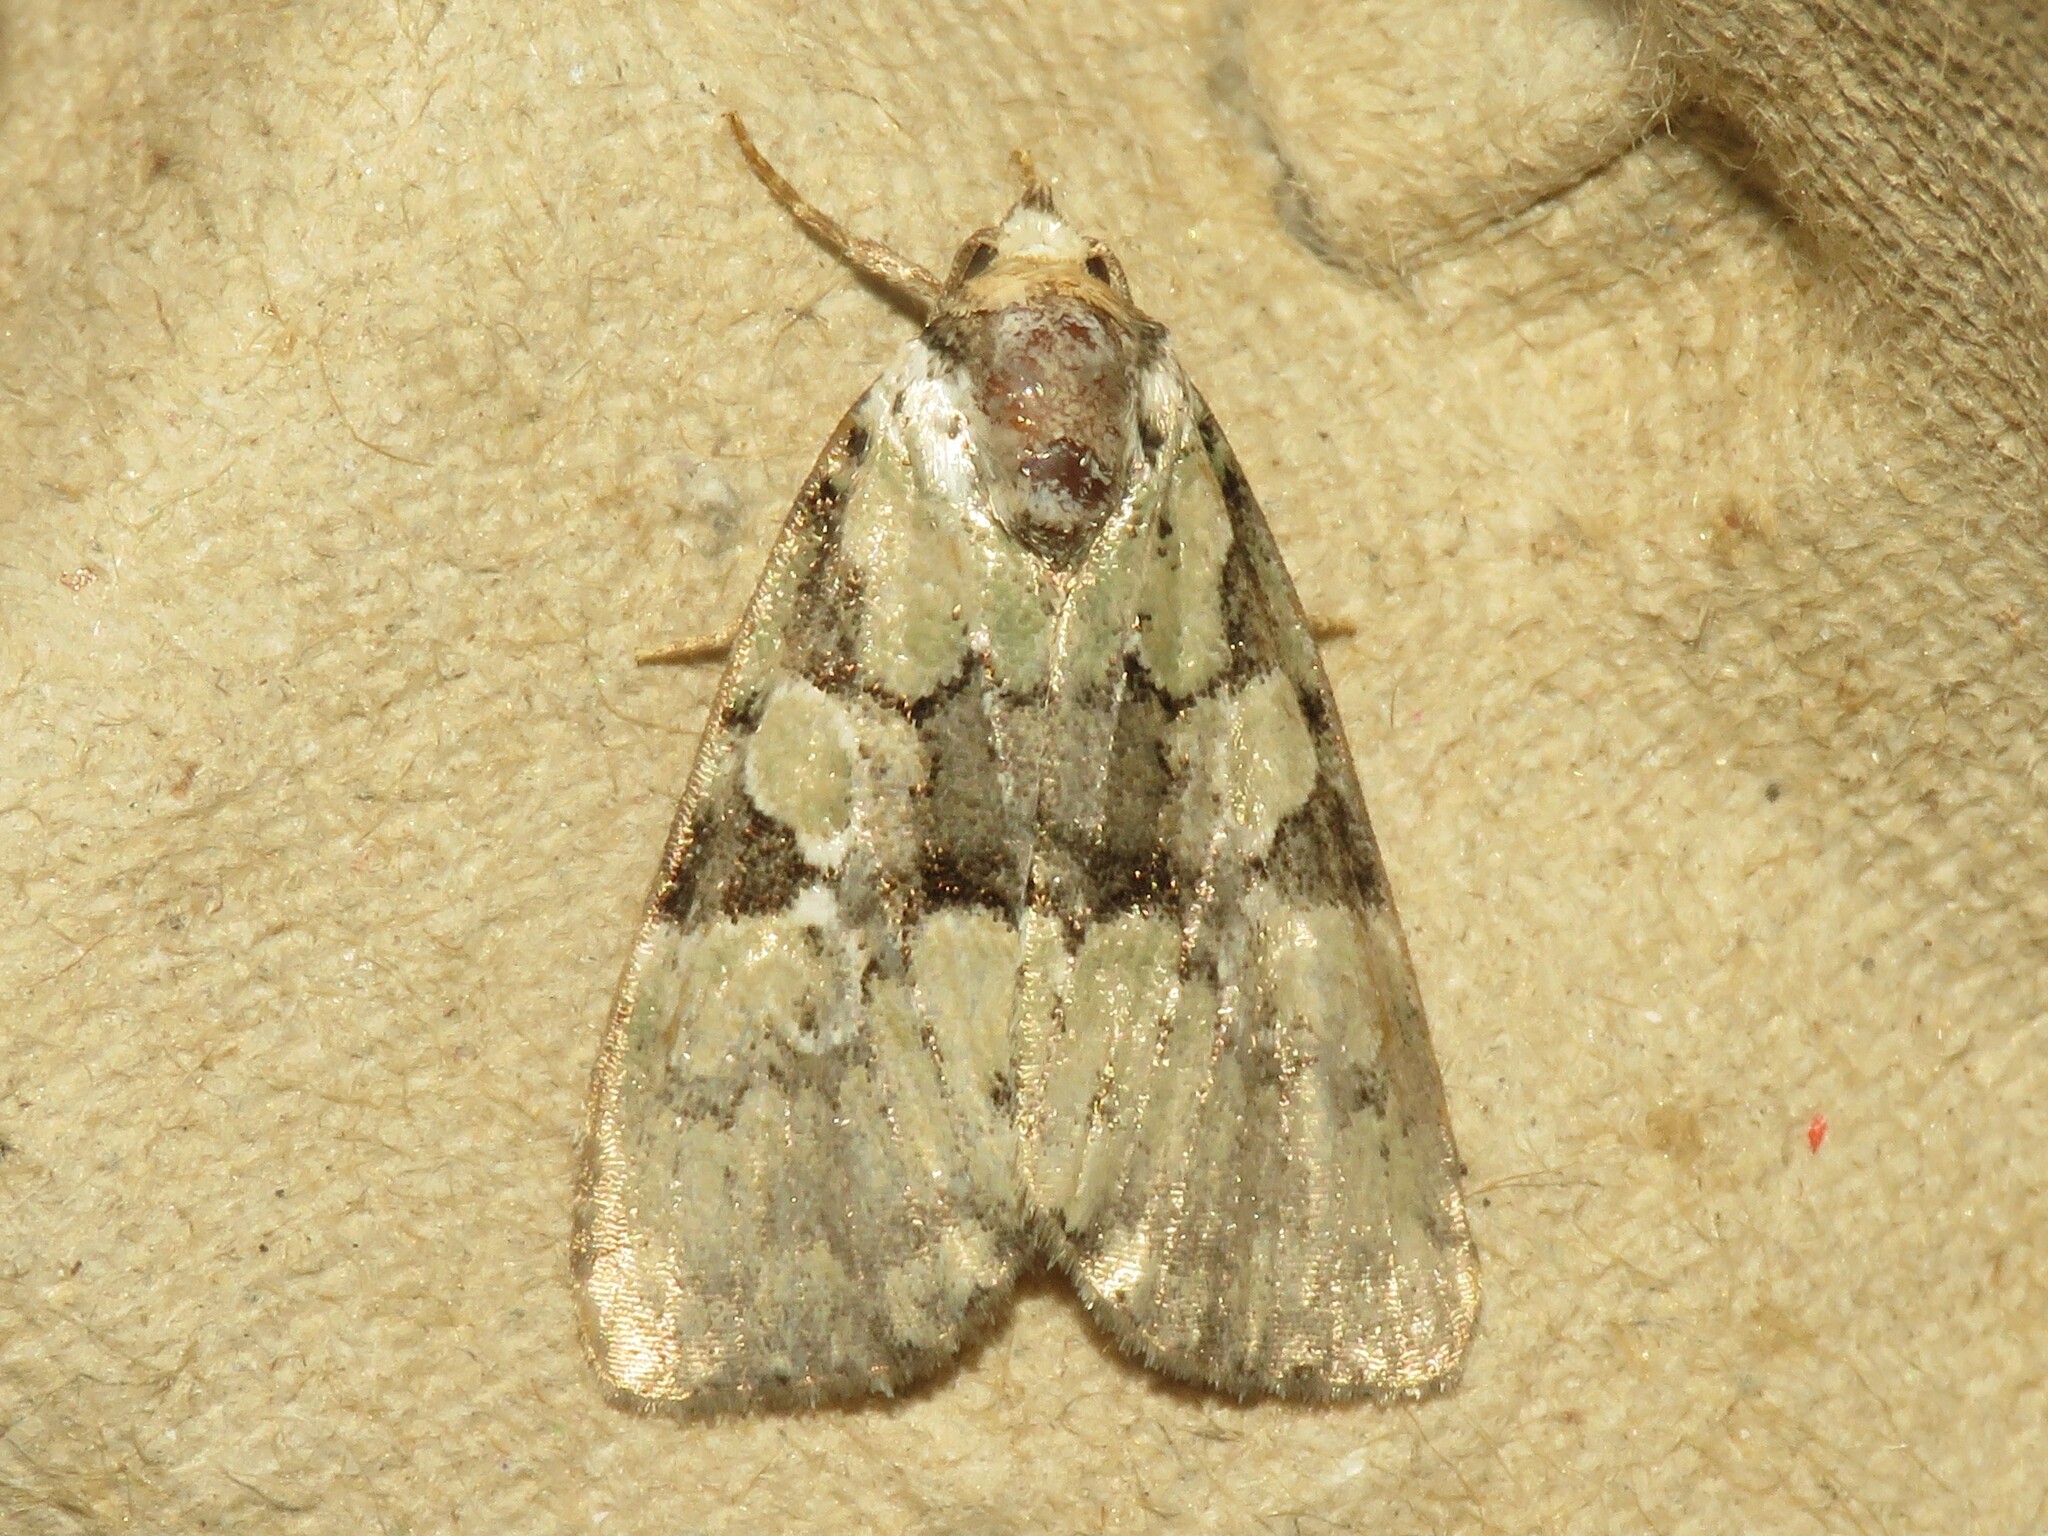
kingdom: Animalia
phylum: Arthropoda
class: Insecta
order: Lepidoptera
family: Noctuidae
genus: Leuconycta
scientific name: Leuconycta lepidula
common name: Marbled-green leuconycta moth
